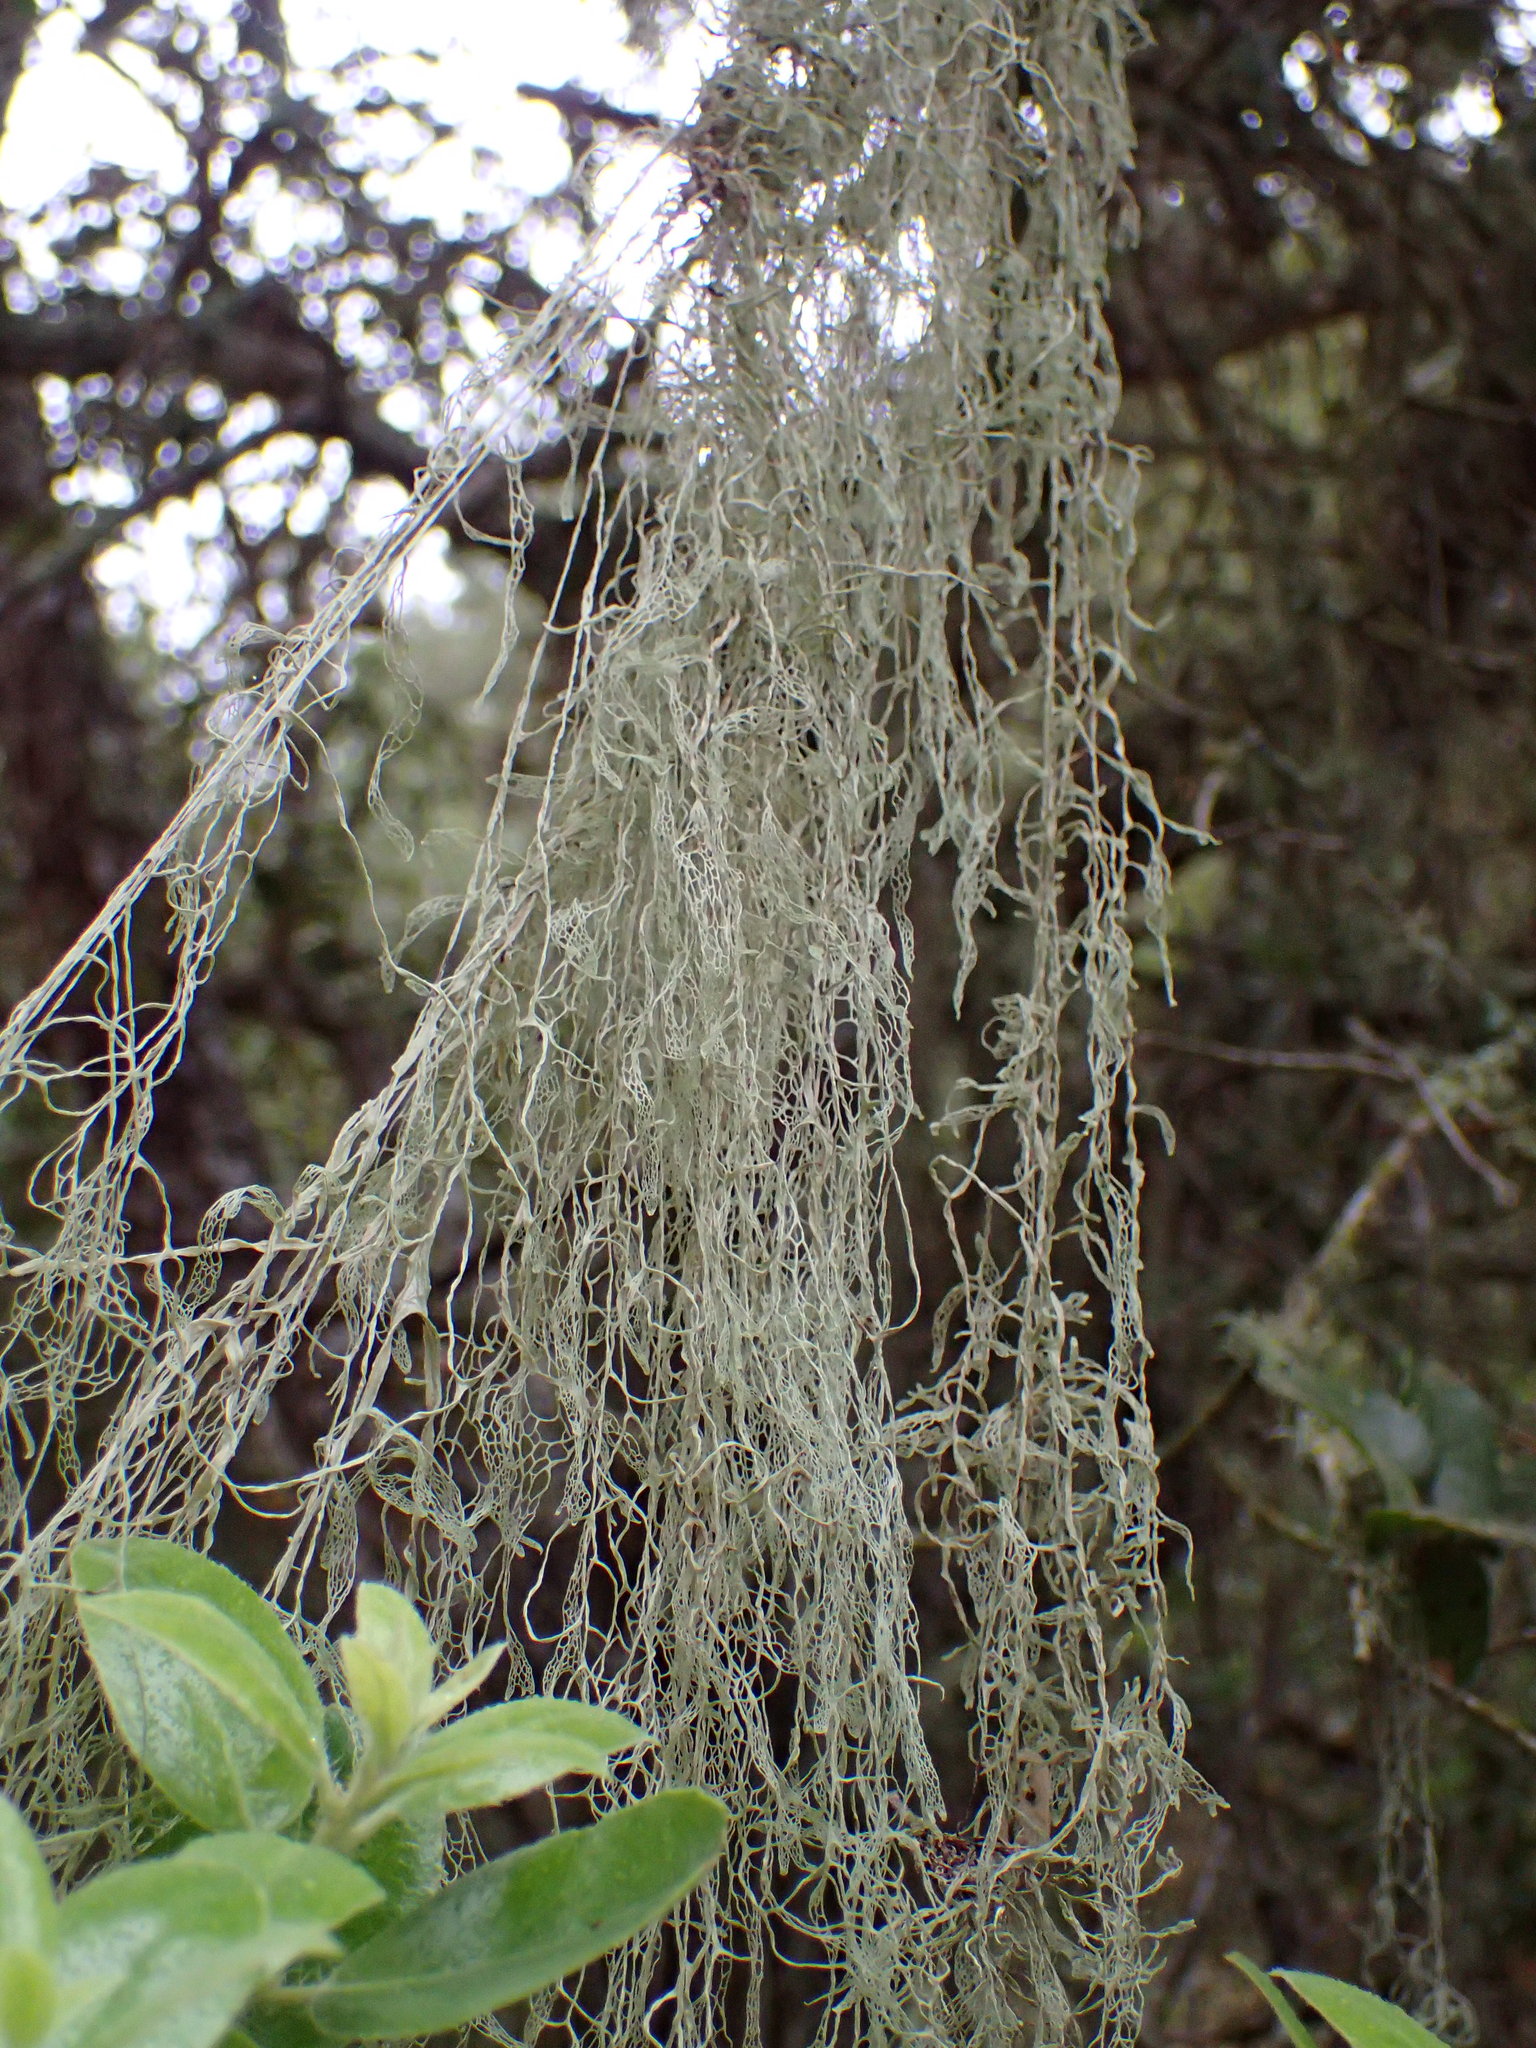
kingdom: Fungi
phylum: Ascomycota
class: Lecanoromycetes
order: Lecanorales
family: Ramalinaceae
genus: Ramalina
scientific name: Ramalina menziesii
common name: Lace lichen
